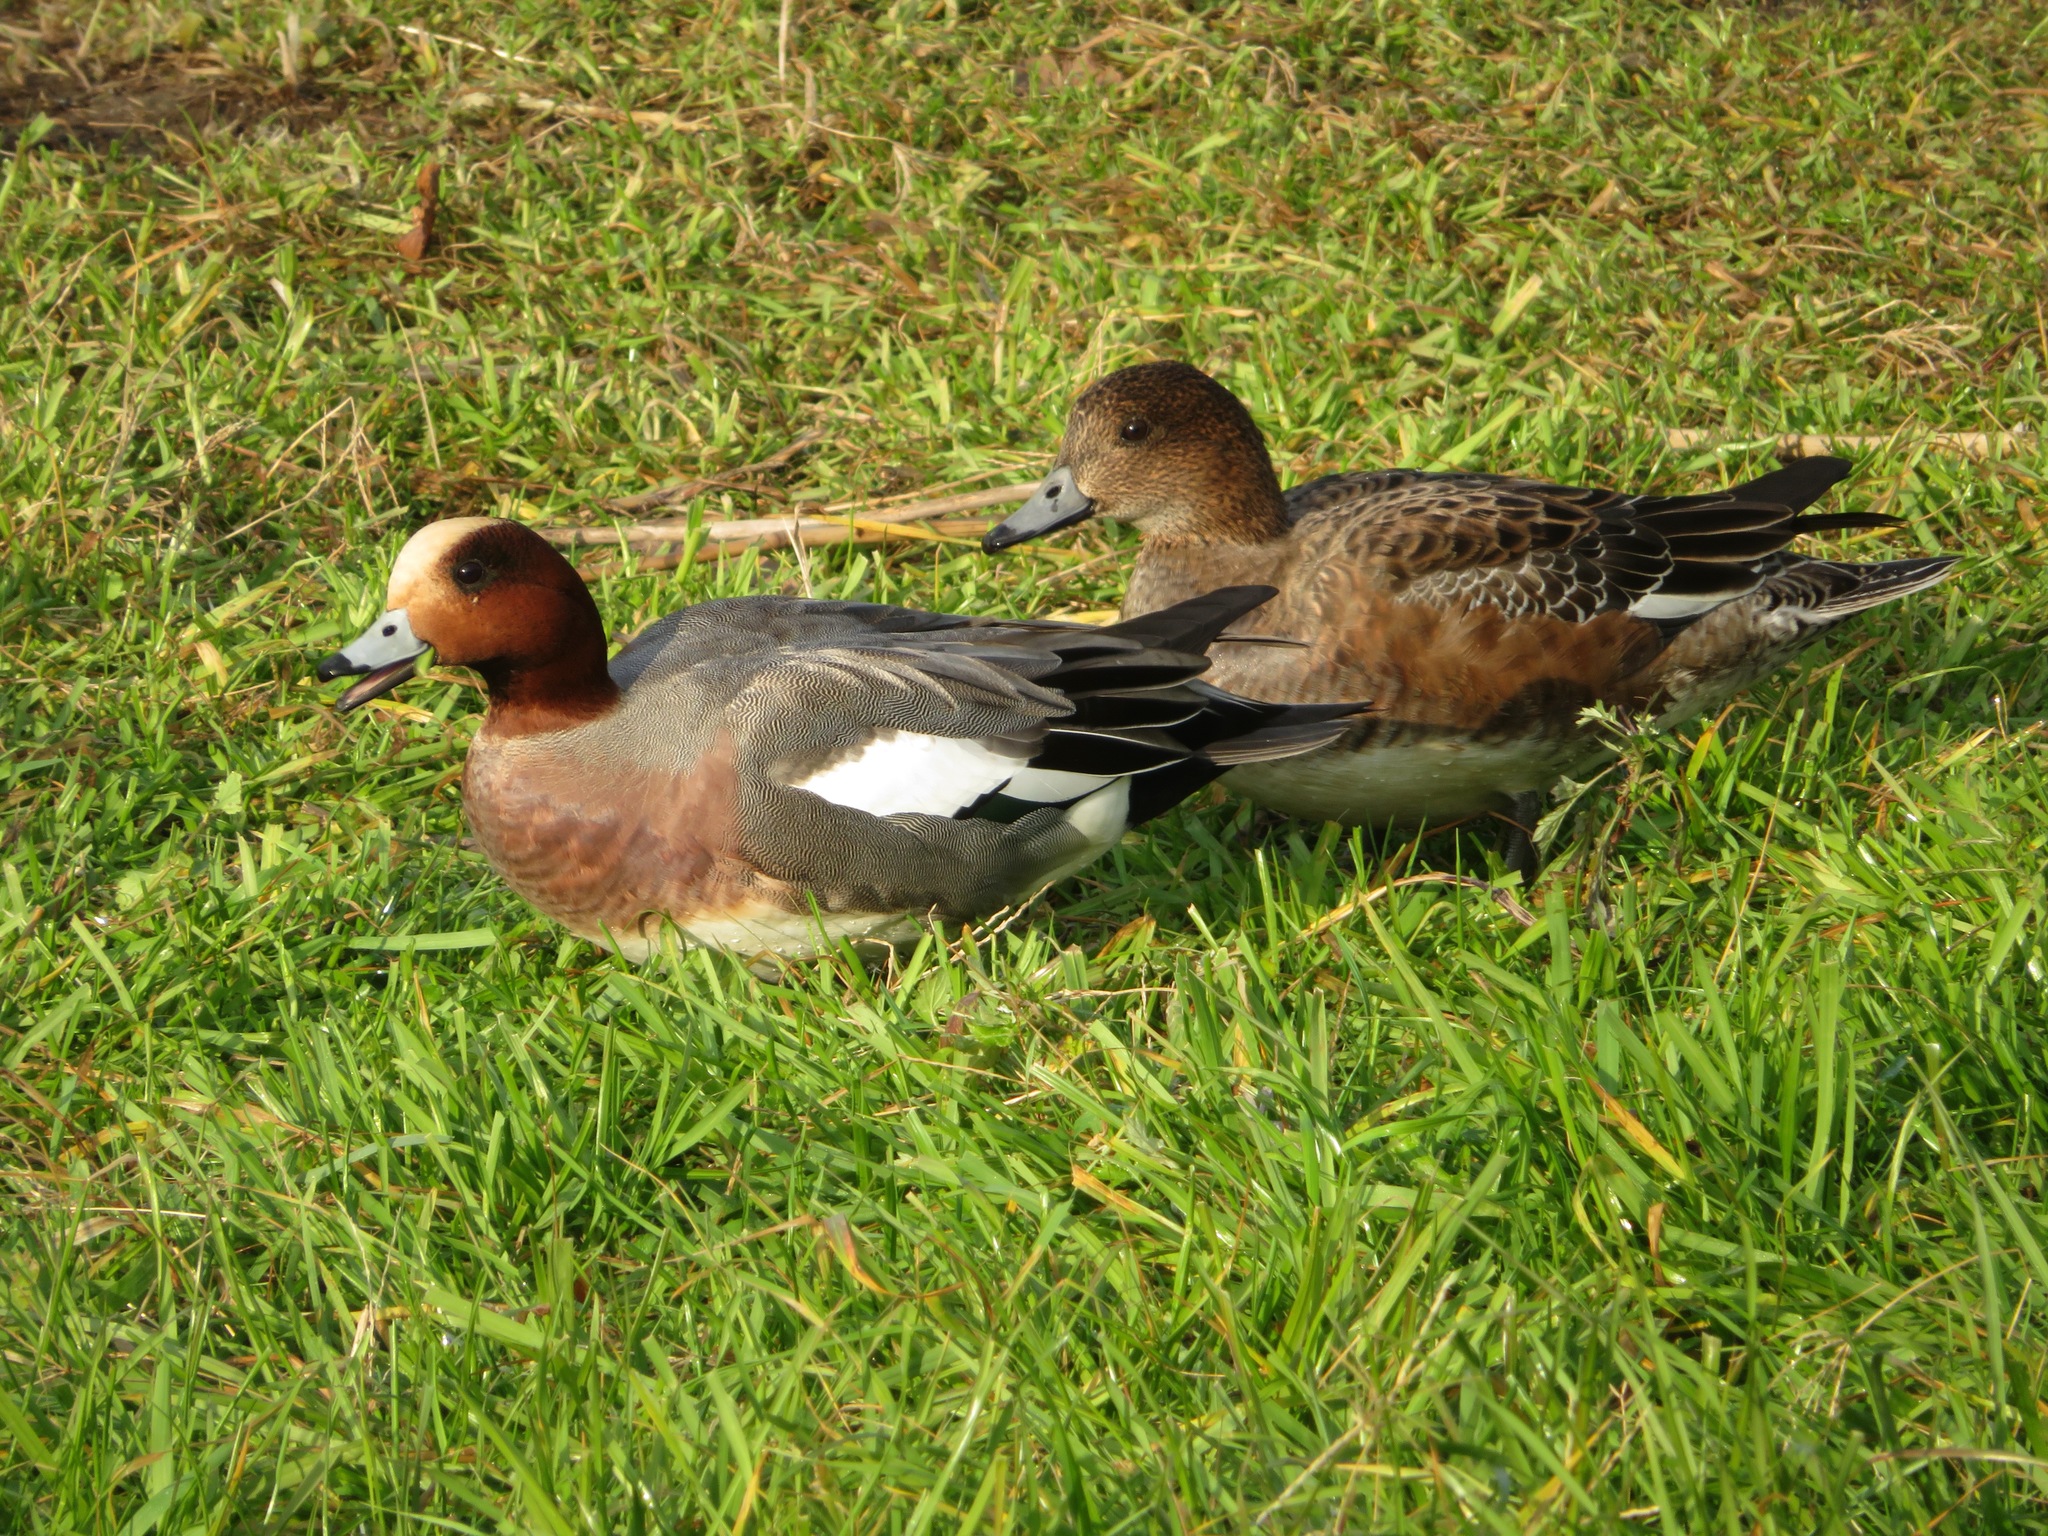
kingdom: Animalia
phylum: Chordata
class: Aves
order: Anseriformes
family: Anatidae
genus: Mareca
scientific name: Mareca penelope
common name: Eurasian wigeon
